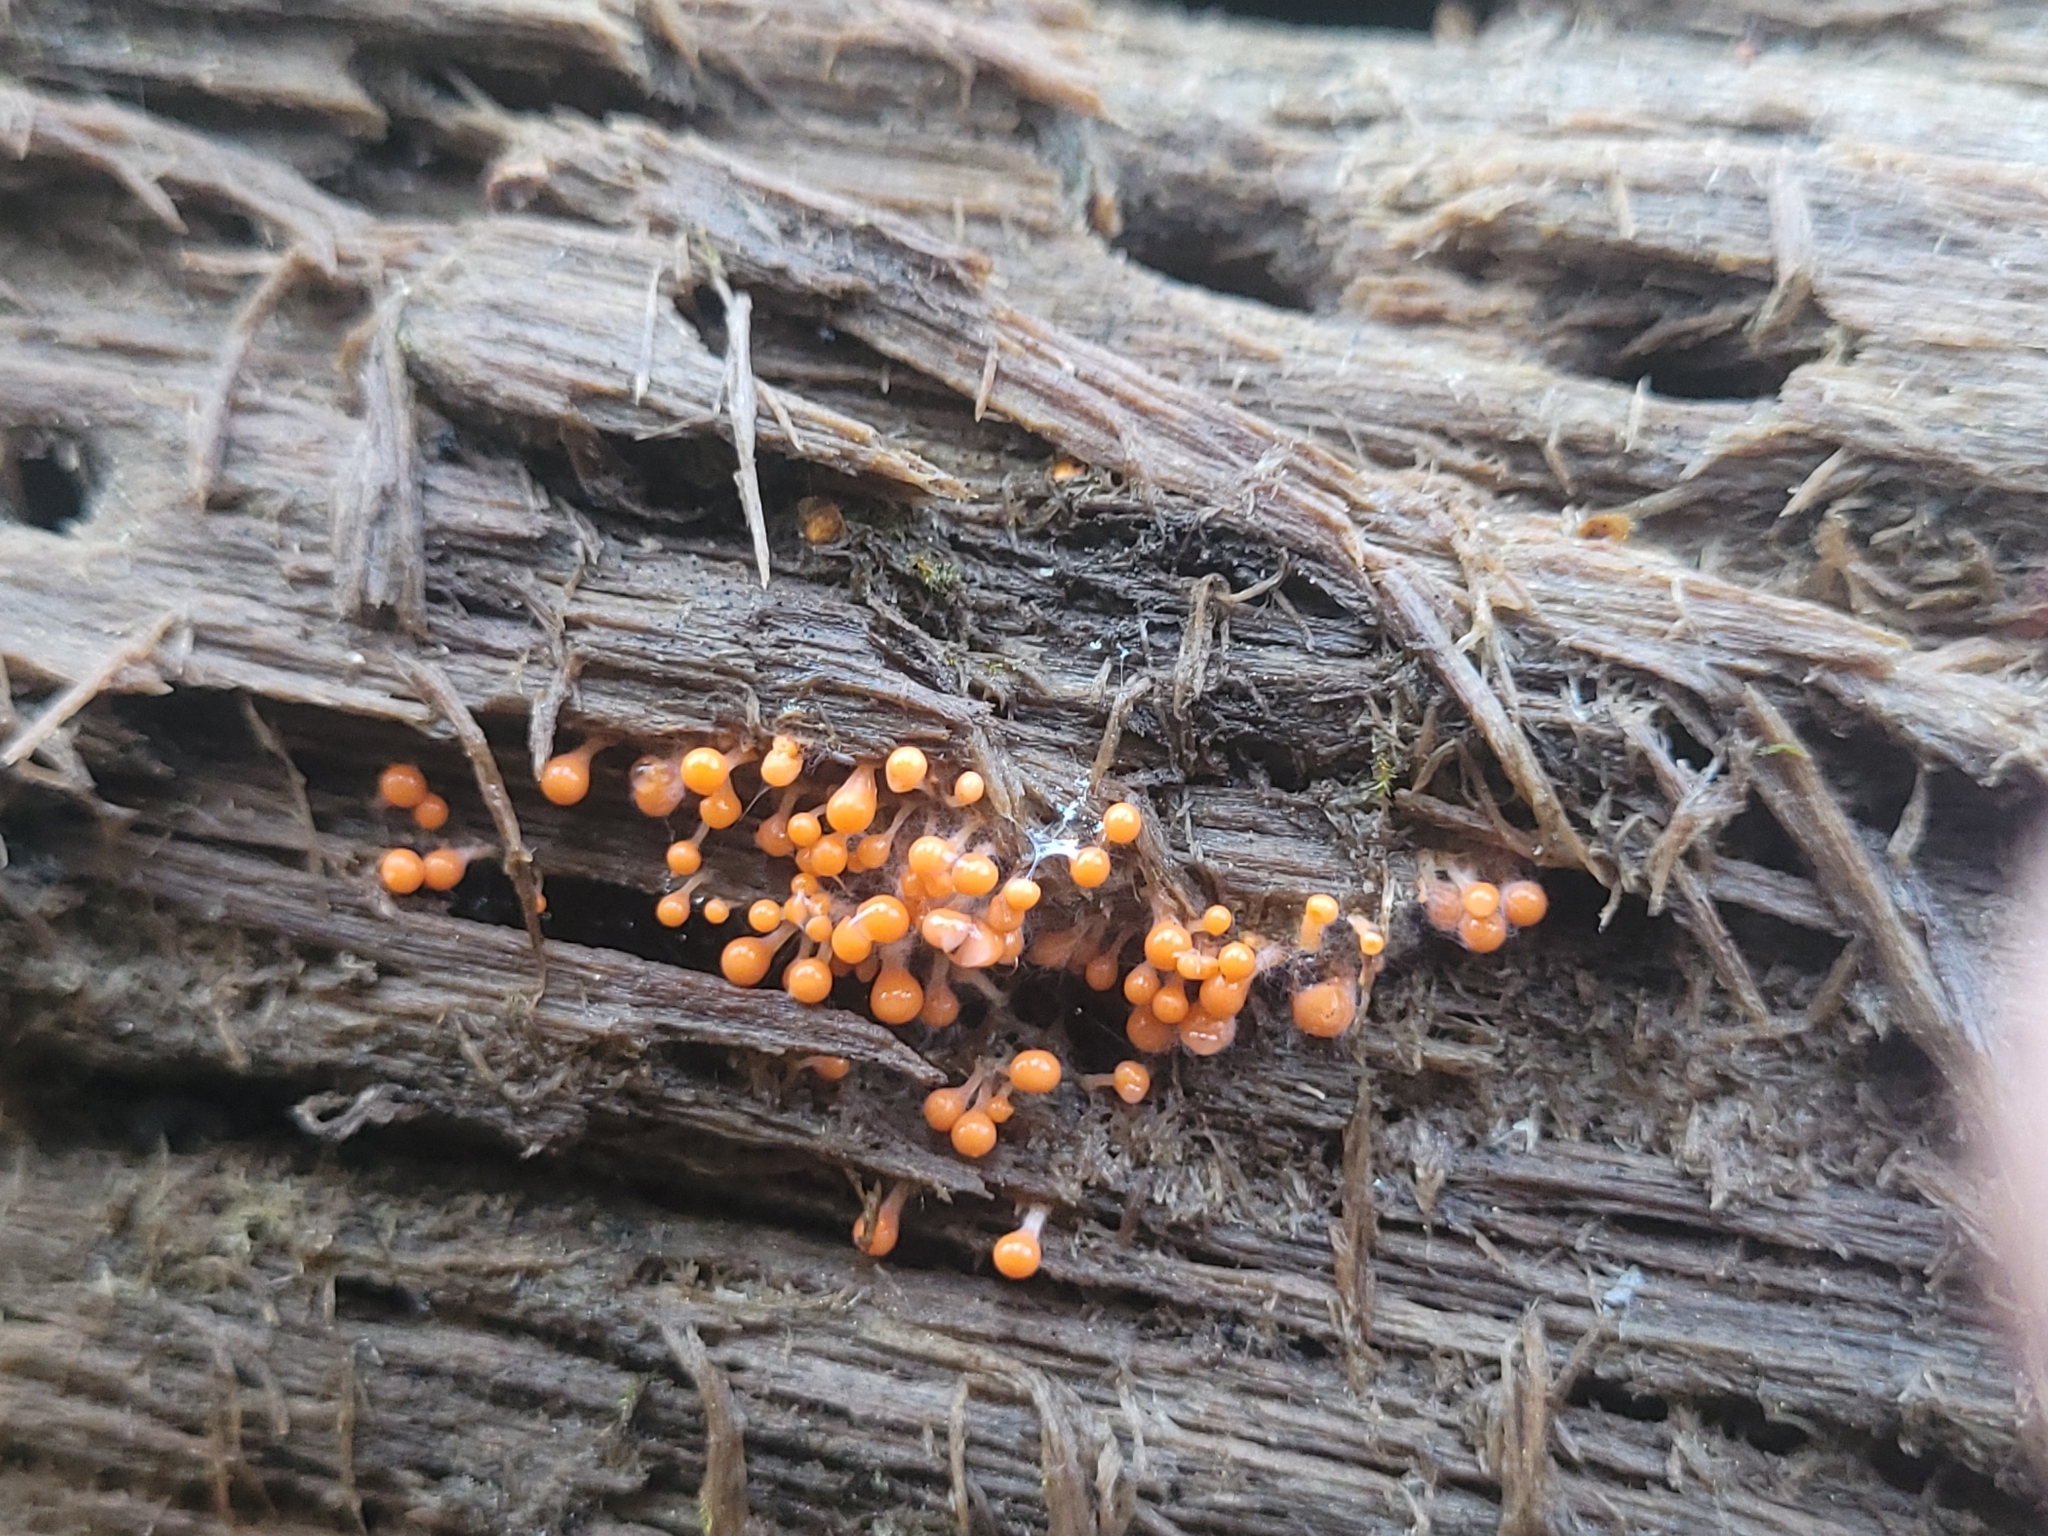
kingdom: Protozoa
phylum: Mycetozoa
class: Myxomycetes
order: Trichiales
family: Arcyriaceae
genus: Hemitrichia
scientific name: Hemitrichia decipiens
